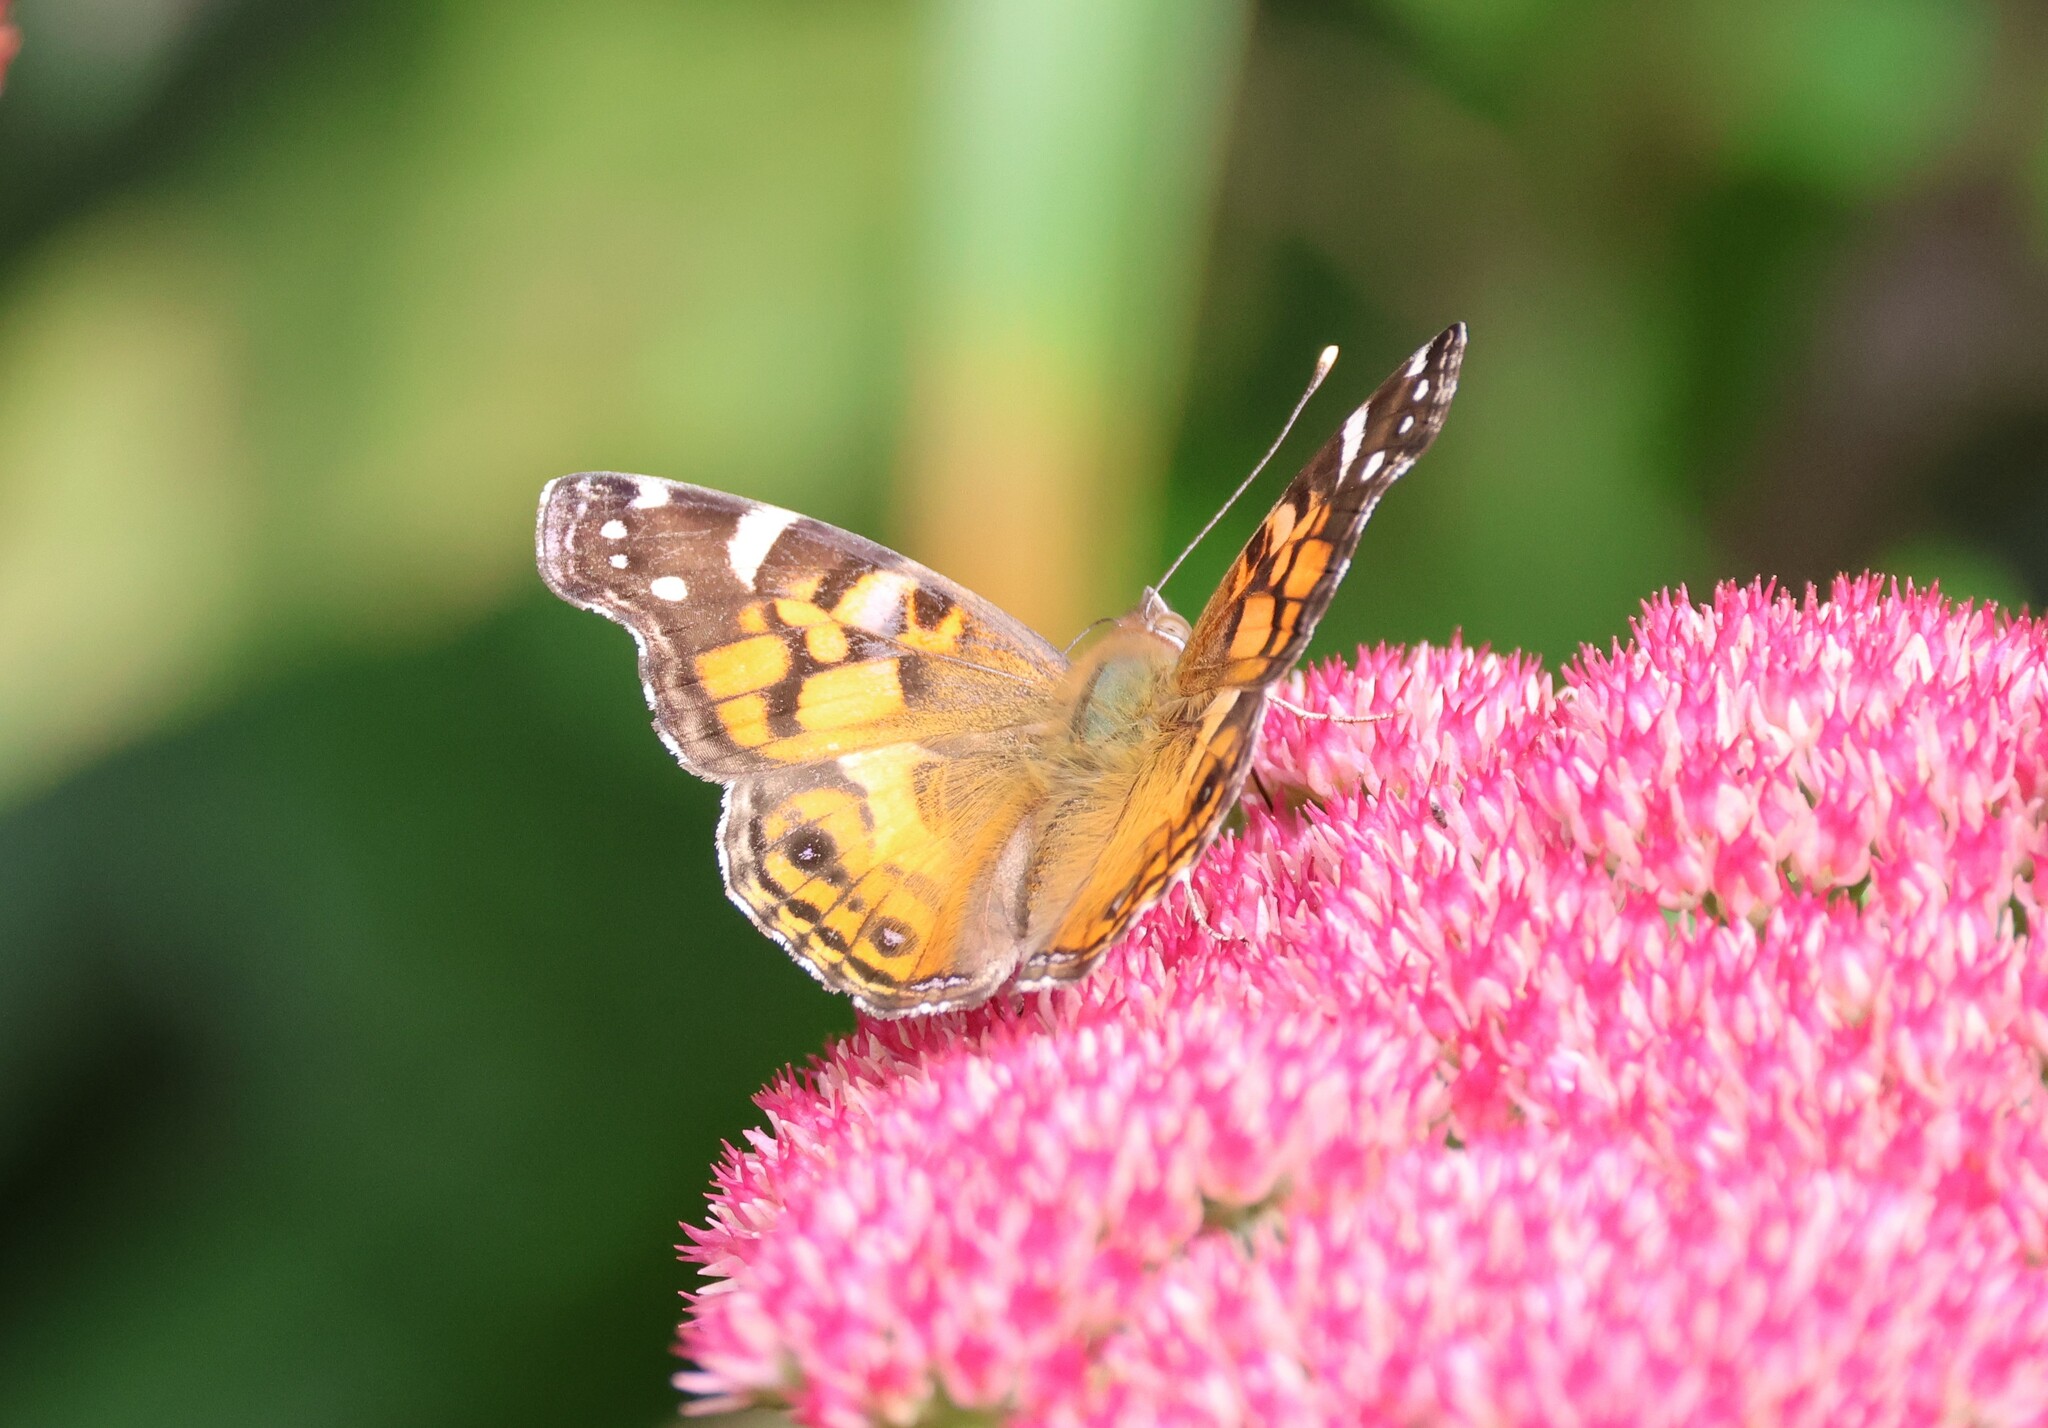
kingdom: Animalia
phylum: Arthropoda
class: Insecta
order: Lepidoptera
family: Nymphalidae
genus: Vanessa
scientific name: Vanessa virginiensis
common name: American lady
